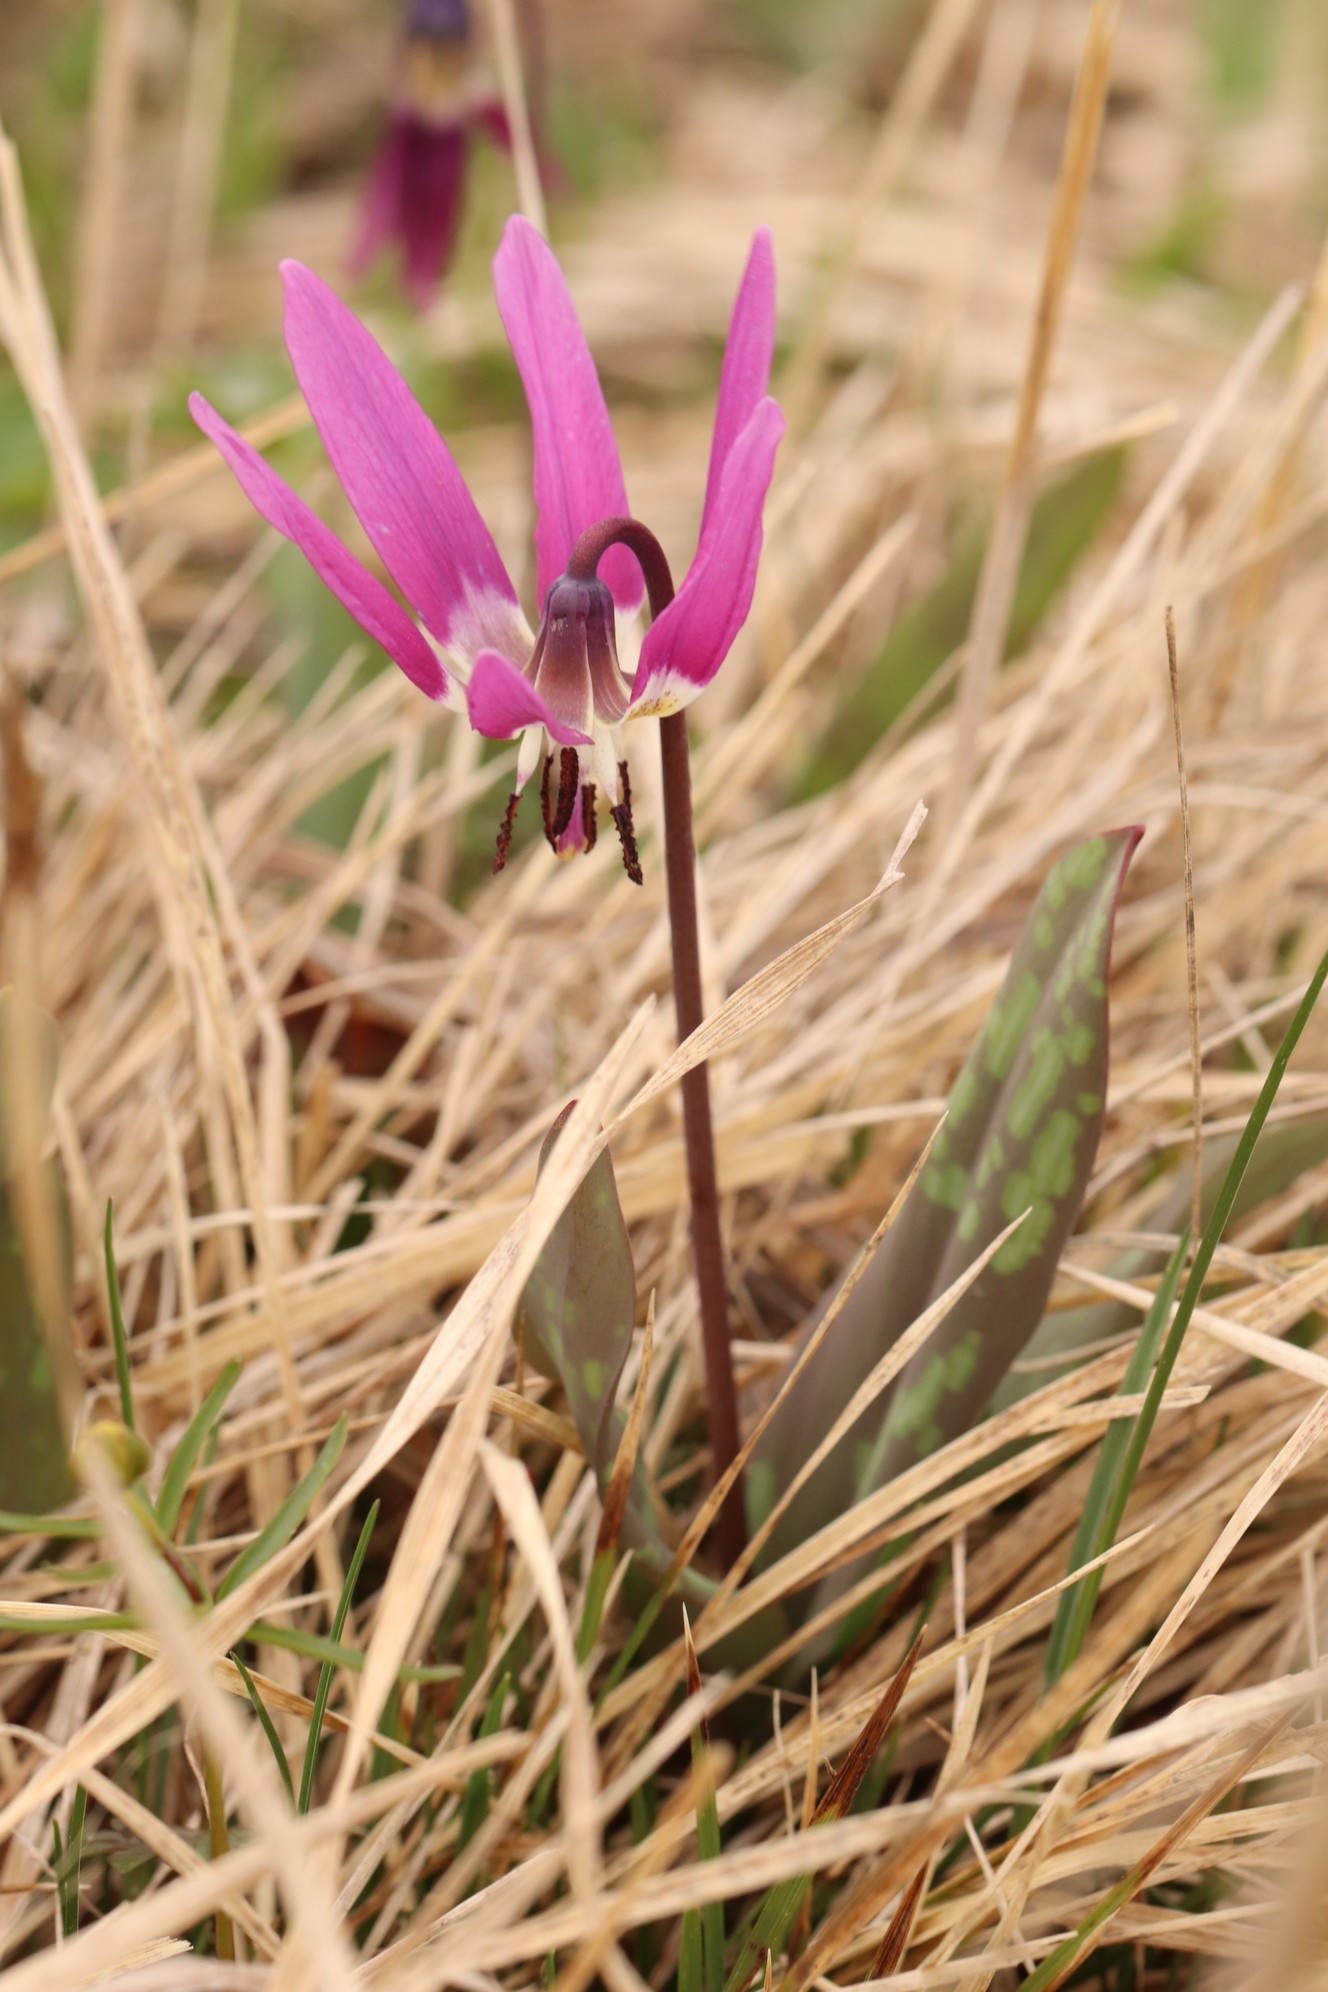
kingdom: Plantae
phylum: Tracheophyta
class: Liliopsida
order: Liliales
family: Liliaceae
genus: Erythronium
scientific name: Erythronium sulevii
